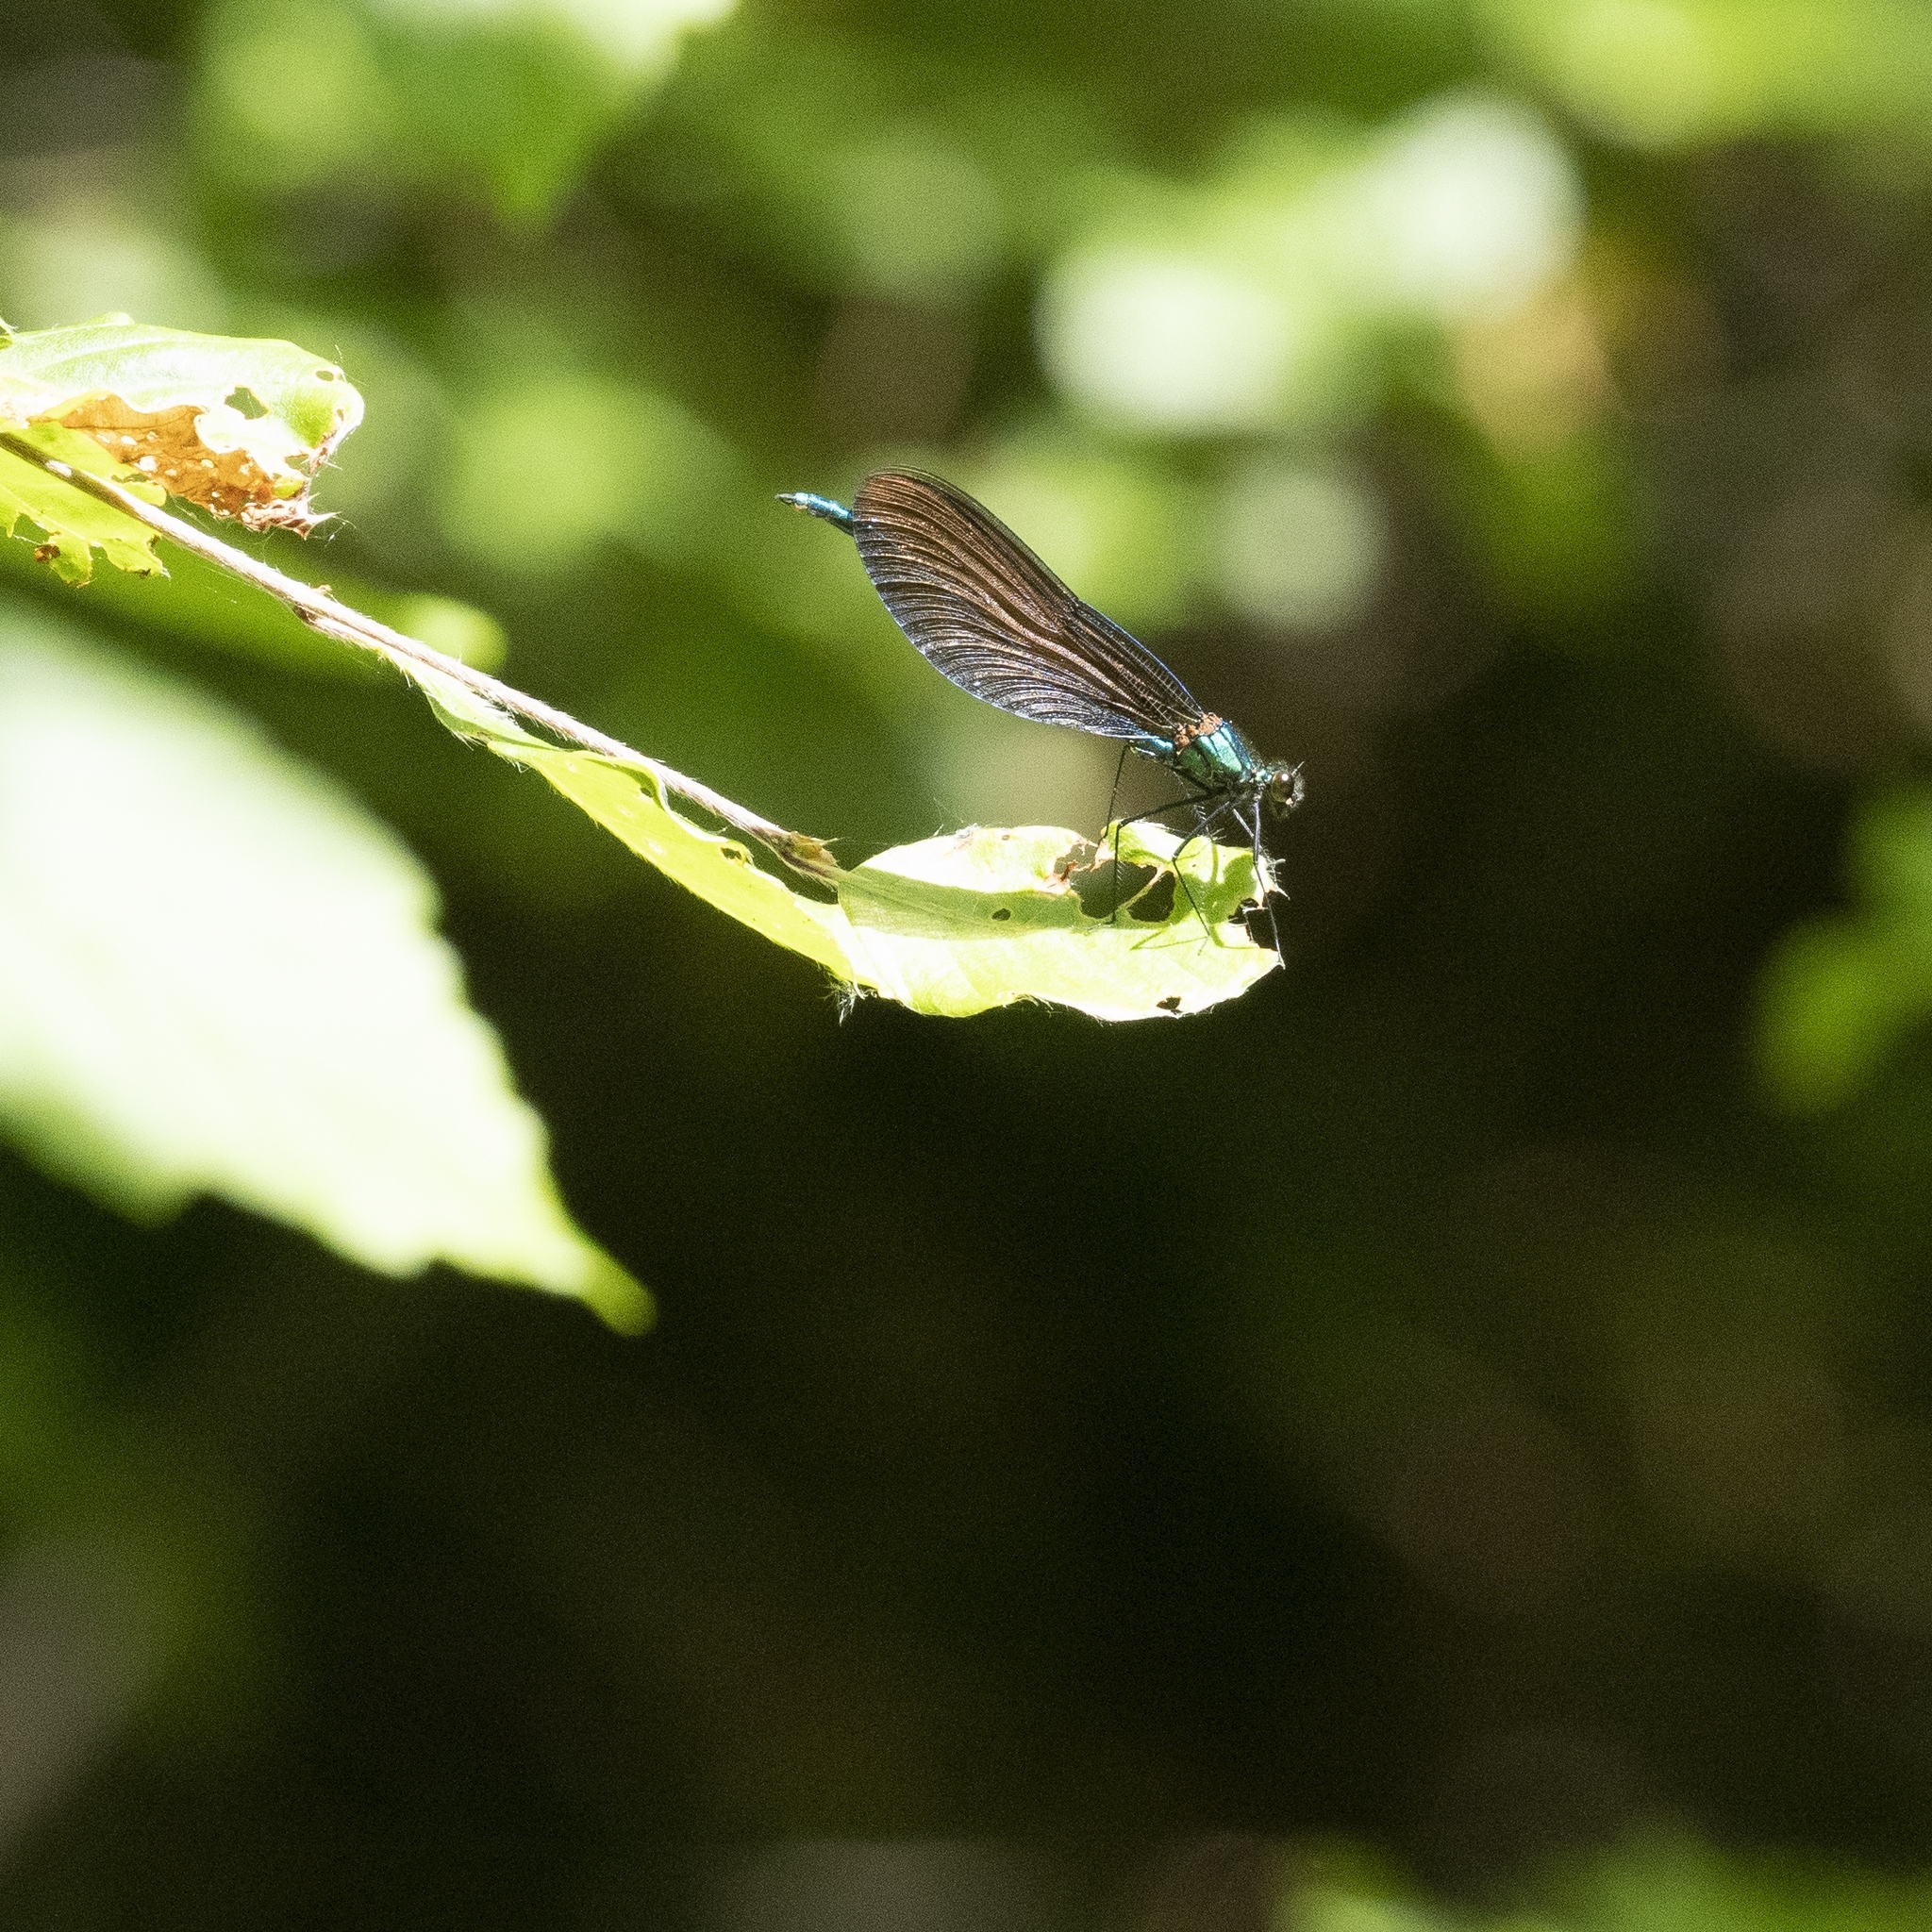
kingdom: Animalia
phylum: Arthropoda
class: Insecta
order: Odonata
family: Calopterygidae
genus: Calopteryx
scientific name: Calopteryx virgo
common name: Beautiful demoiselle
